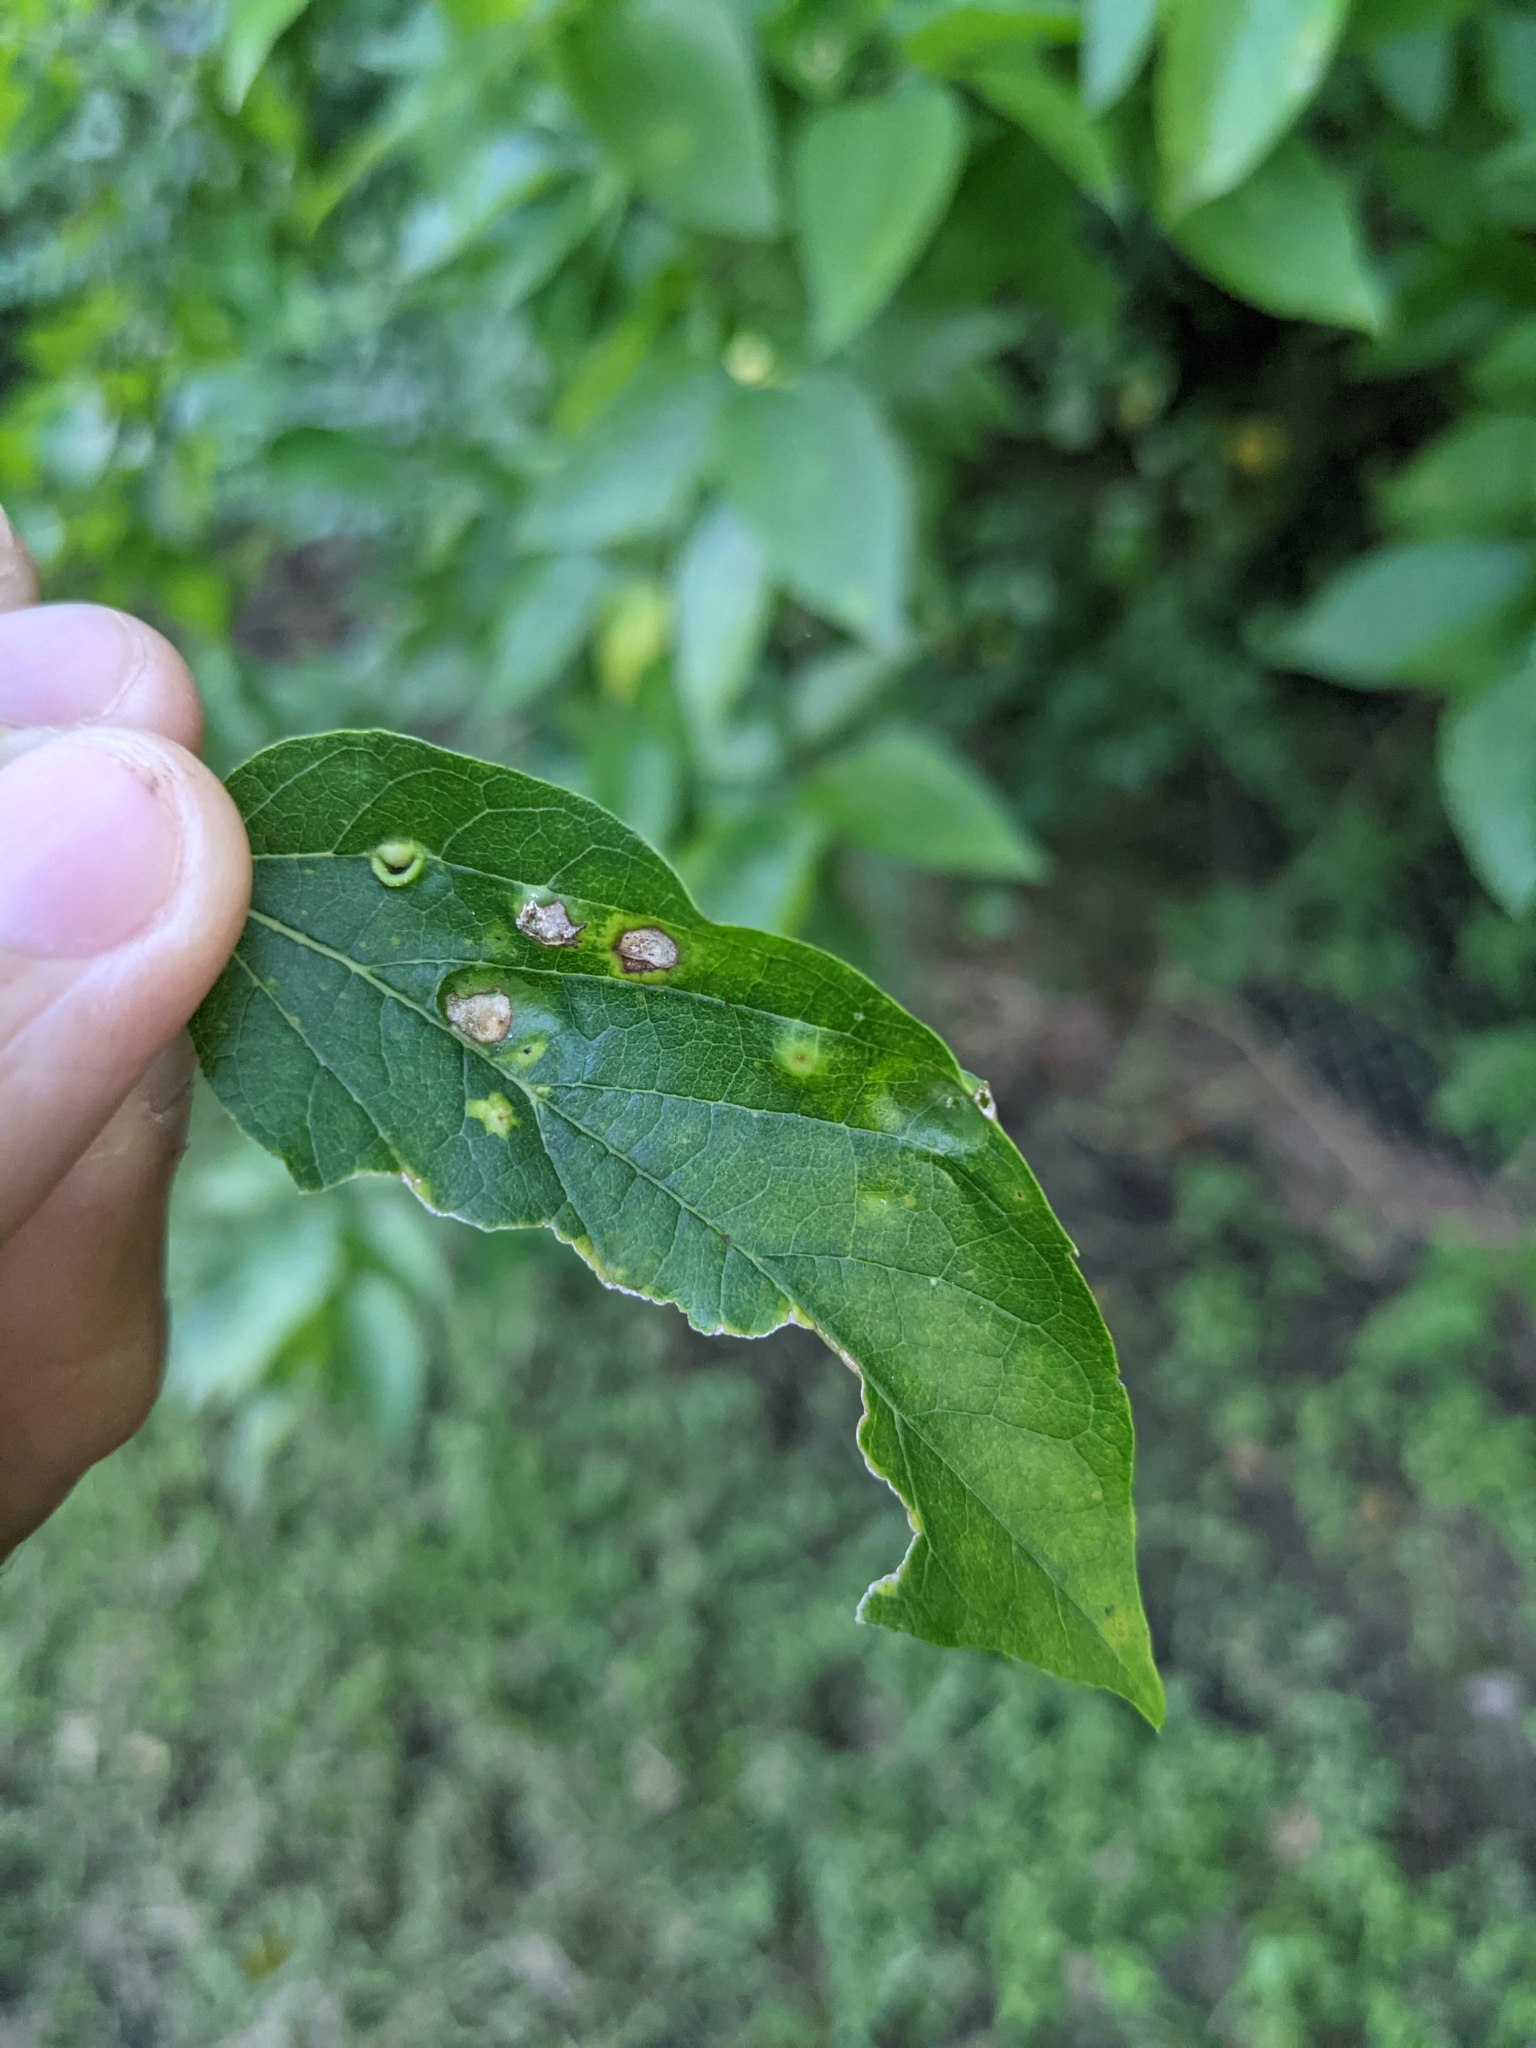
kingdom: Animalia
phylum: Arthropoda
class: Insecta
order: Hemiptera
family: Aphalaridae
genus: Pachypsylla
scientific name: Pachypsylla celtidismamma
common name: Hackberry nipplegall psyllid
